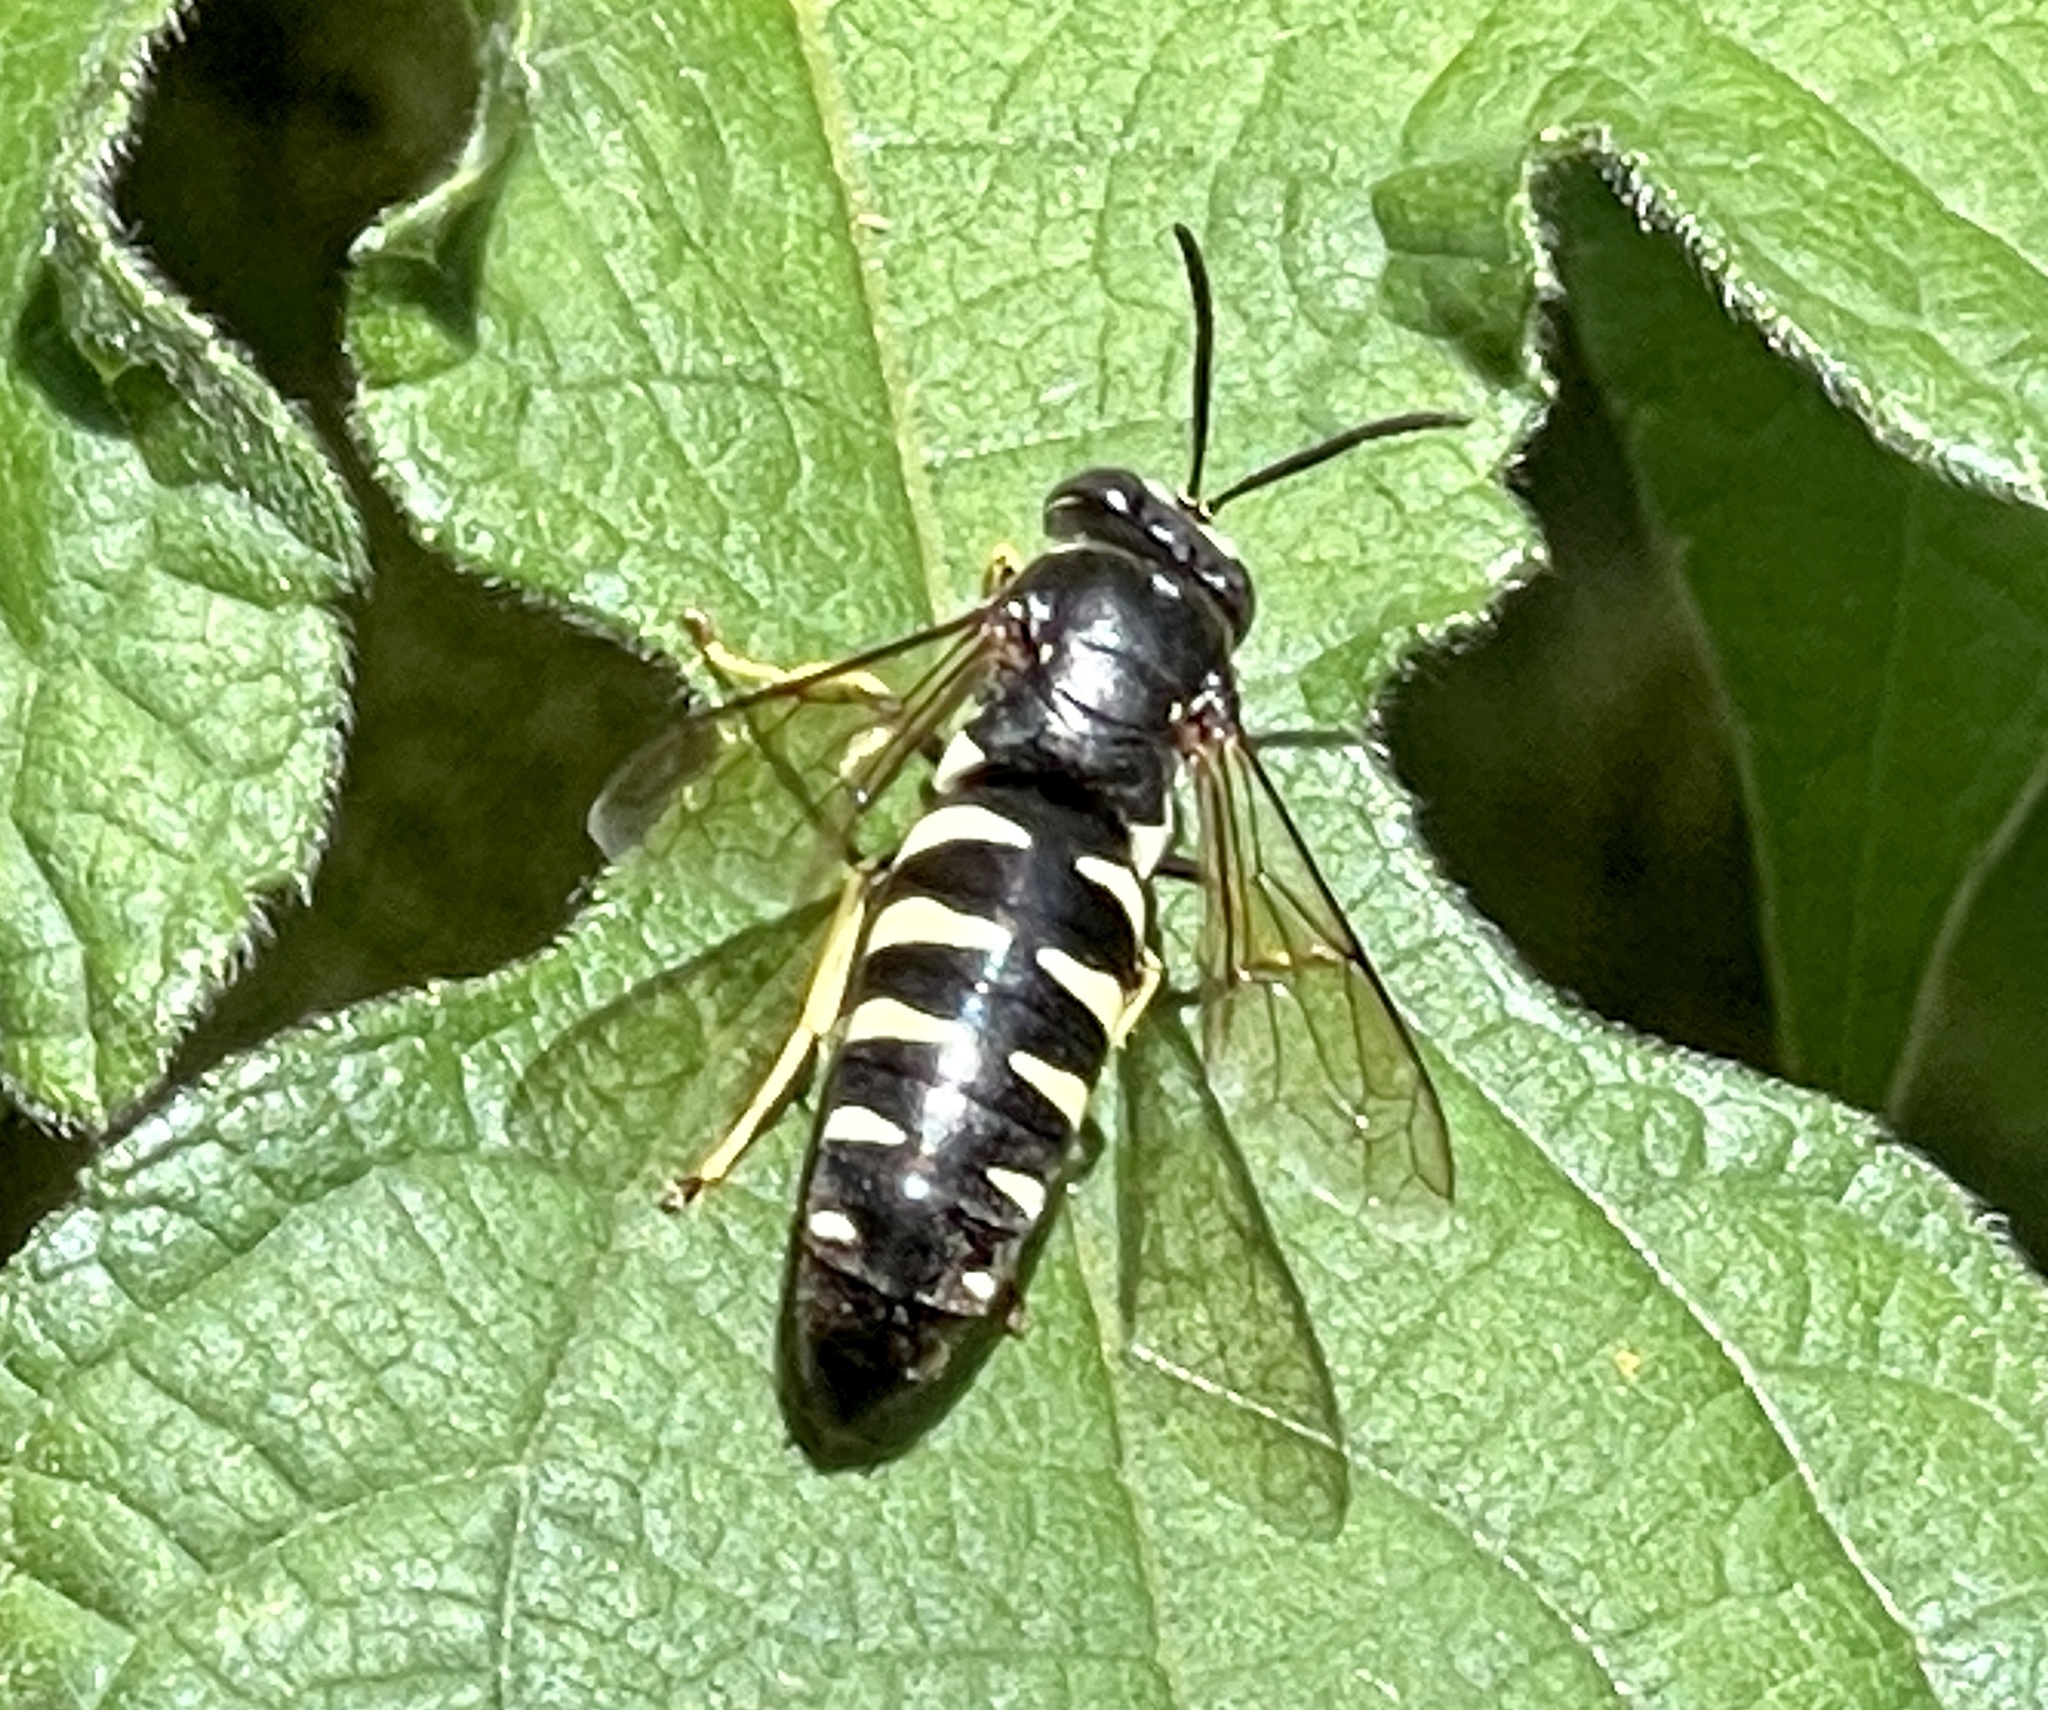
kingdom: Animalia
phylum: Arthropoda
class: Insecta
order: Hymenoptera
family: Crabronidae
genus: Bicyrtes
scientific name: Bicyrtes quadrifasciatus
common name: Four-banded stink bug hunter wasp
